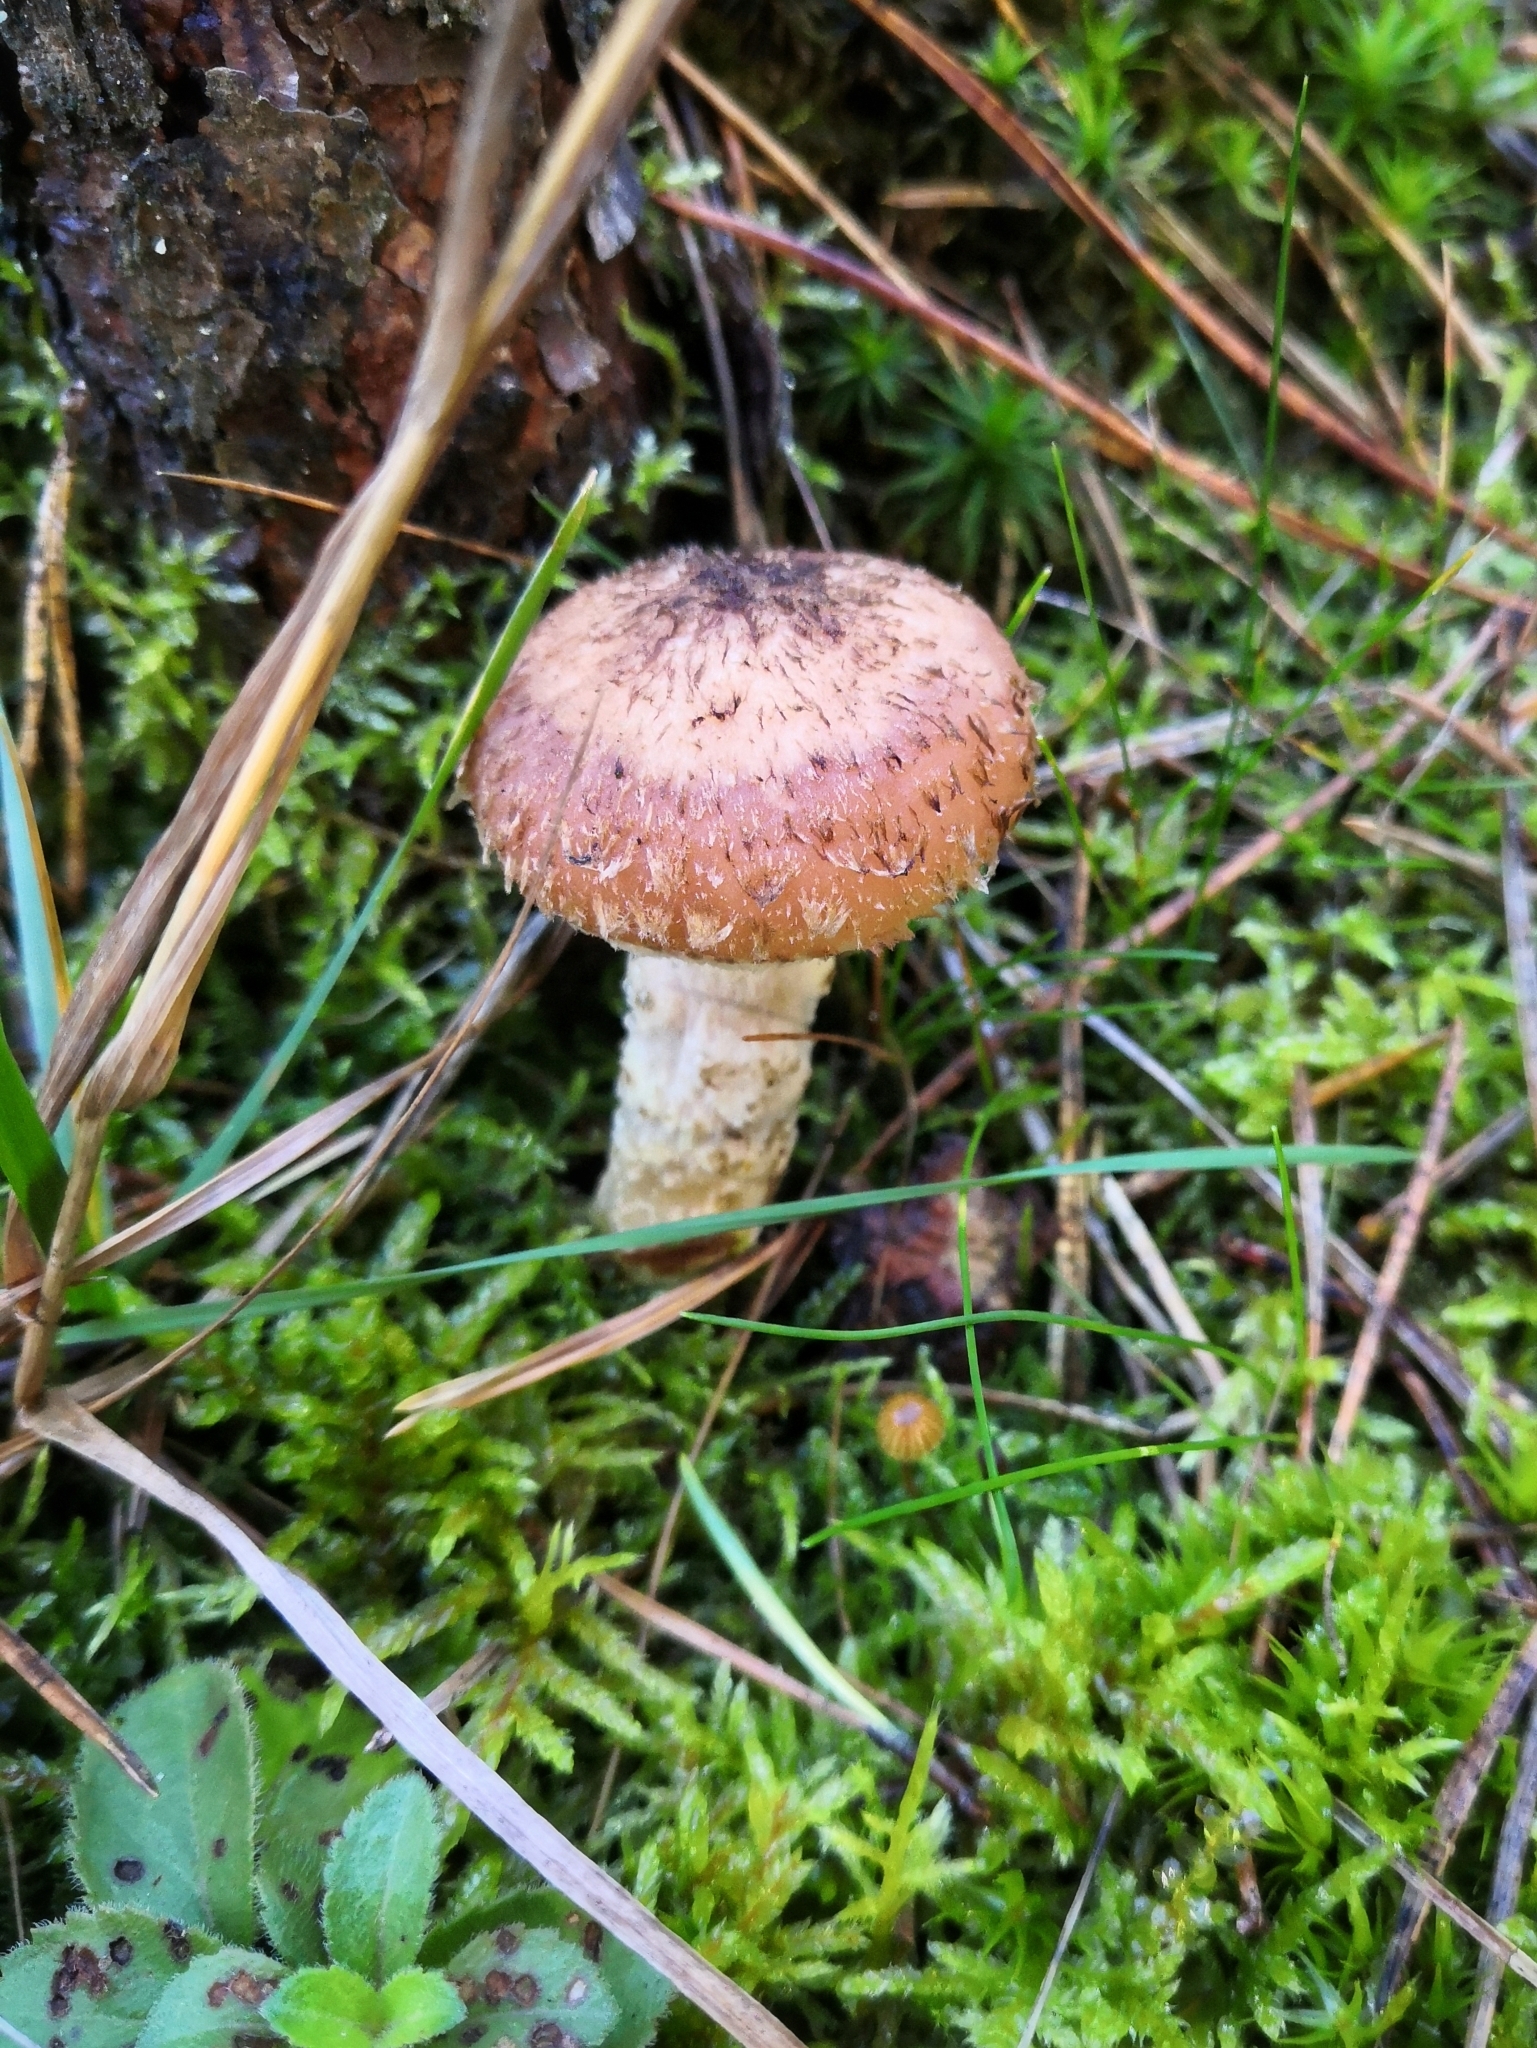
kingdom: Fungi
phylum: Basidiomycota
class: Agaricomycetes
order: Agaricales
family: Physalacriaceae
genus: Armillaria
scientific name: Armillaria ostoyae
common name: Dark honey fungus
